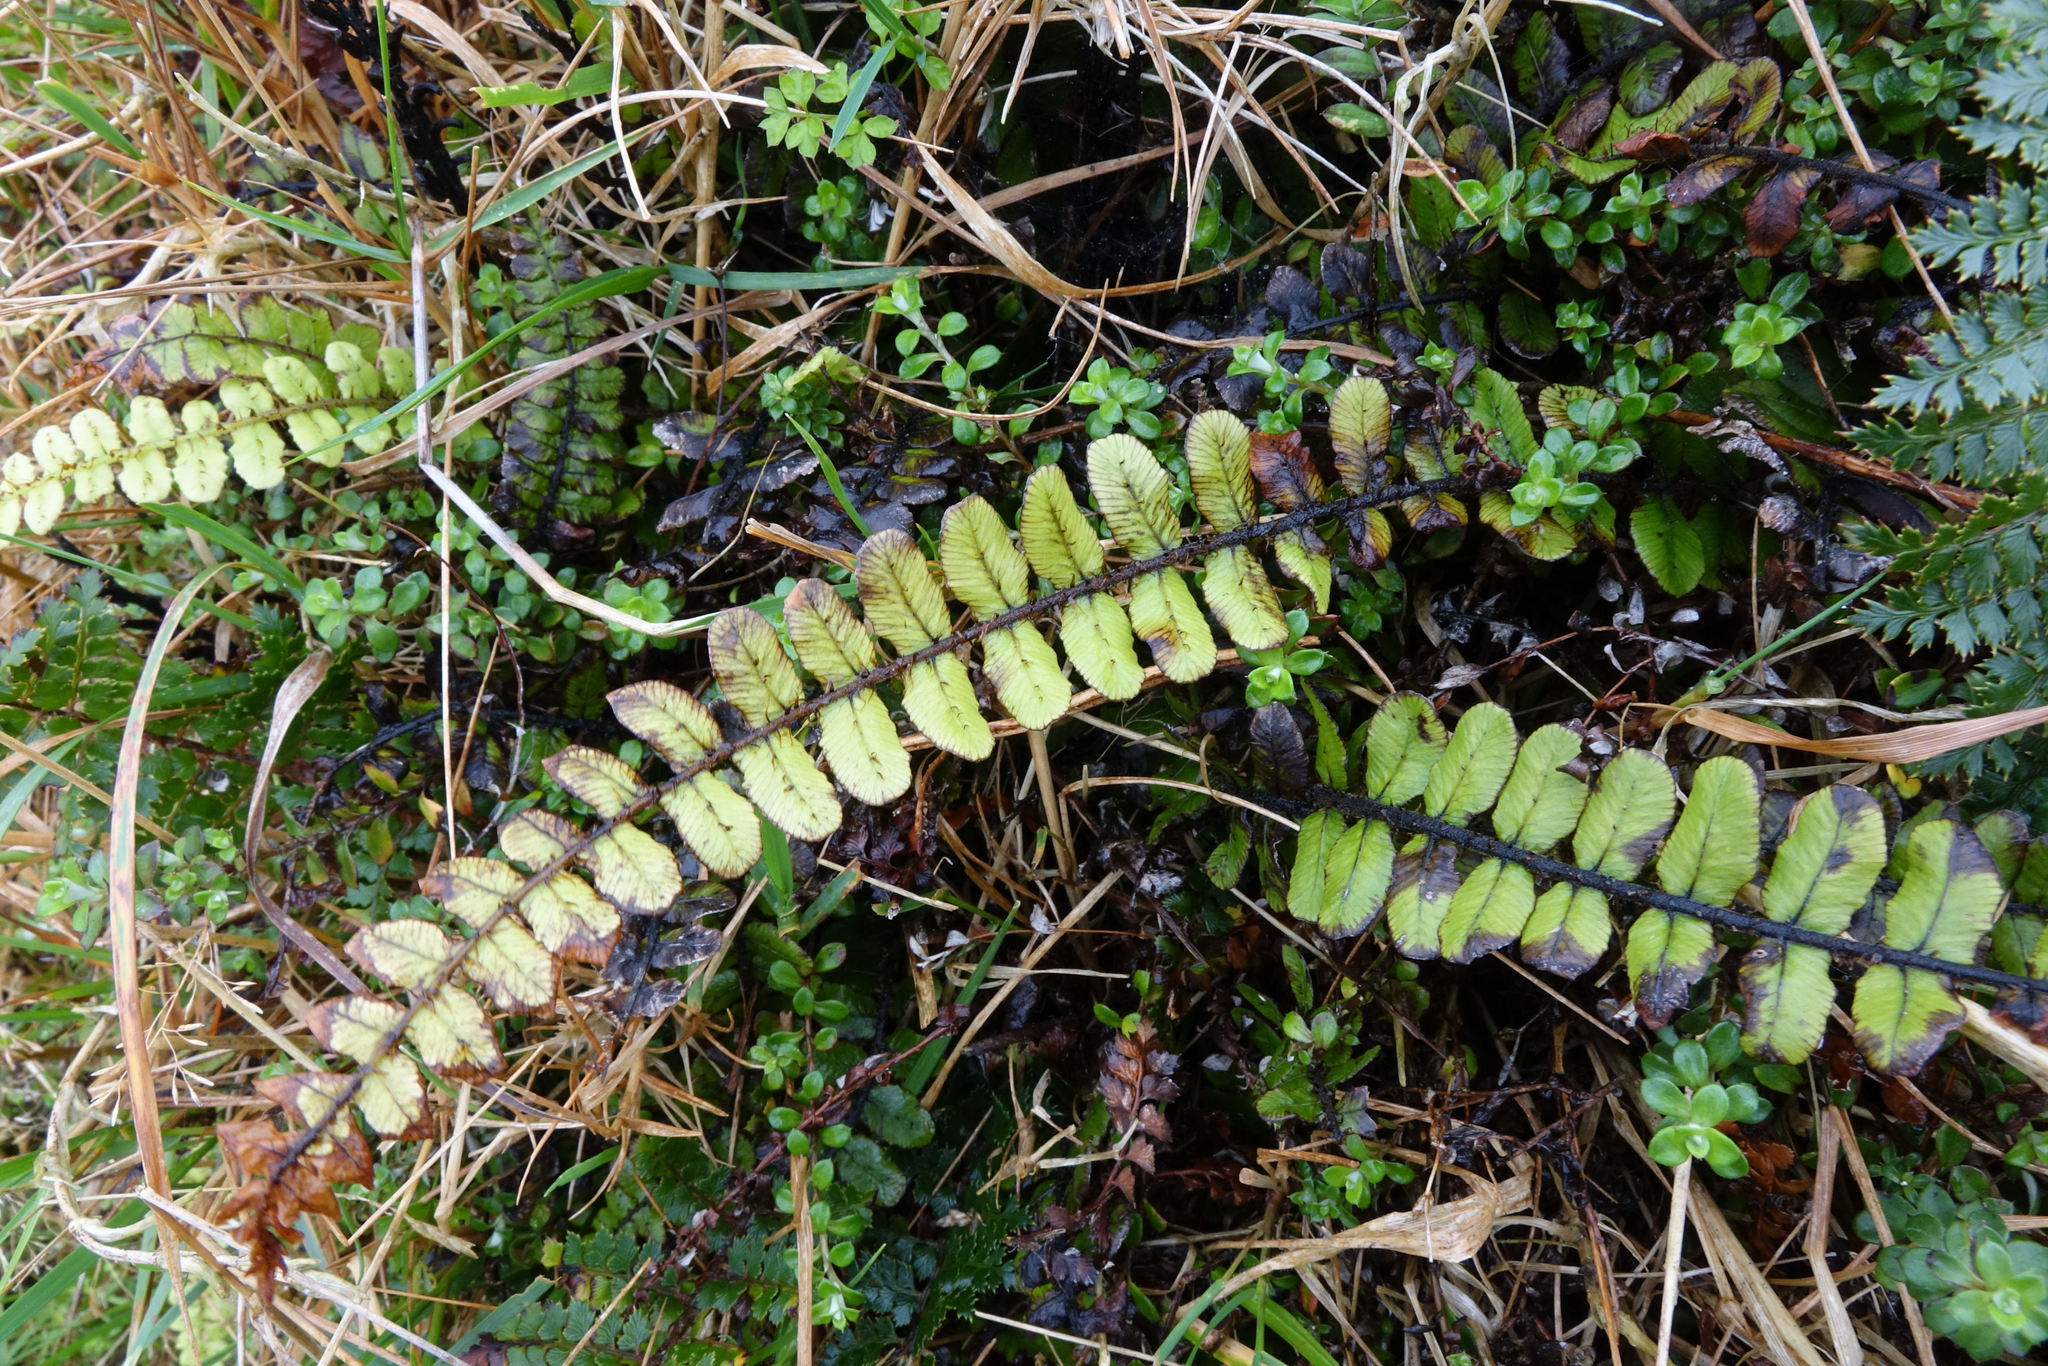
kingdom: Plantae
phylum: Tracheophyta
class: Polypodiopsida
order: Polypodiales
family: Blechnaceae
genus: Cranfillia
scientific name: Cranfillia fluviatilis
